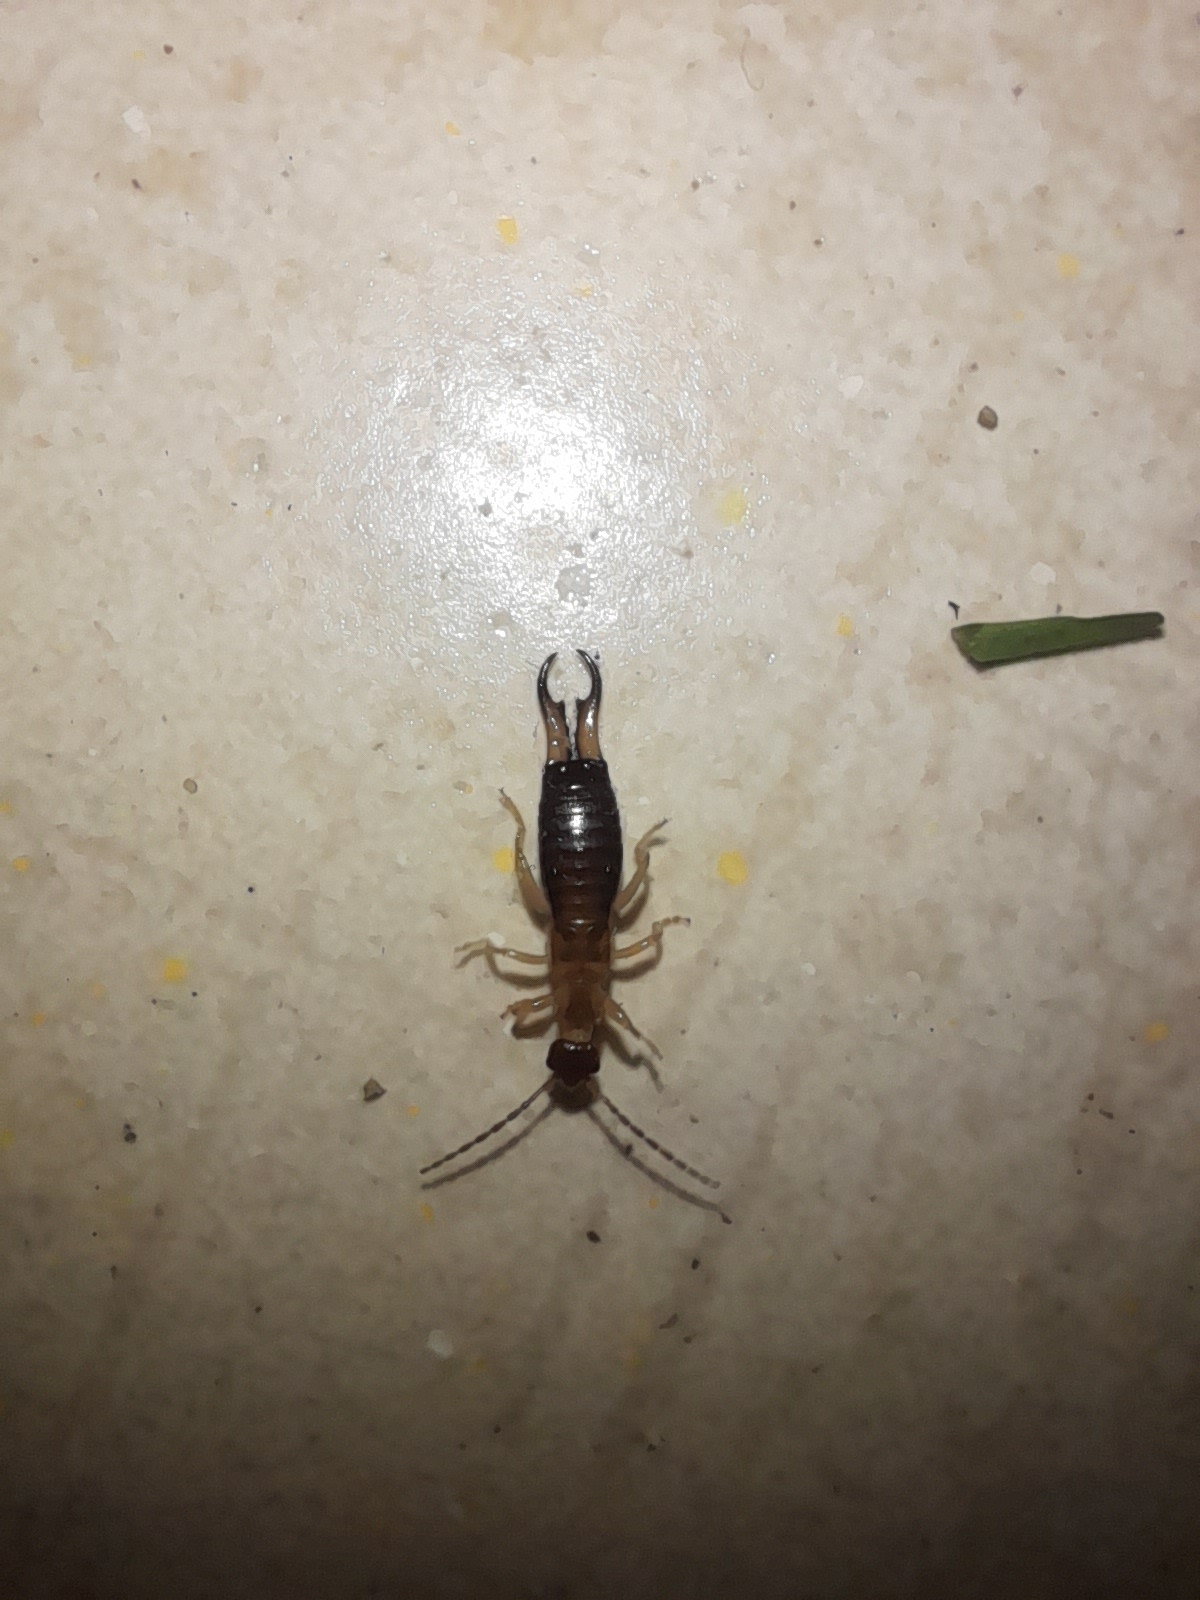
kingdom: Animalia
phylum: Arthropoda
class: Insecta
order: Dermaptera
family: Forficulidae
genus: Guanchia
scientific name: Guanchia pubescens
